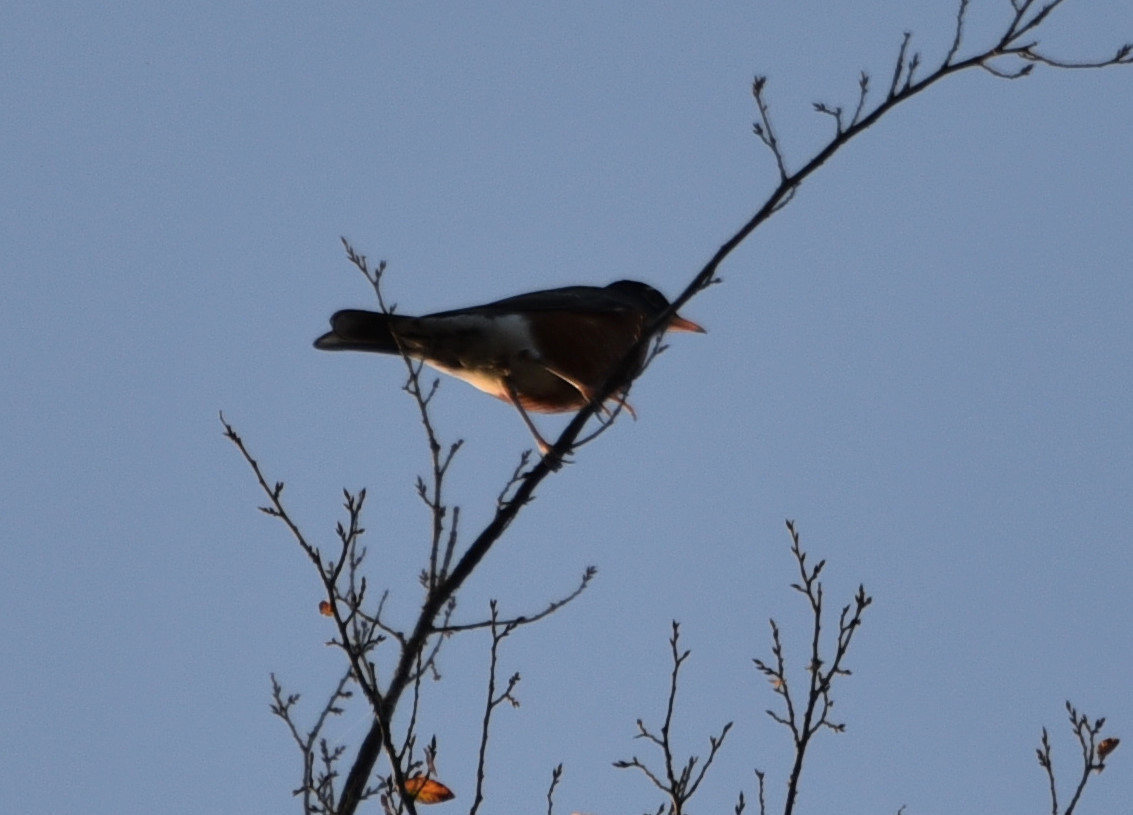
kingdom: Animalia
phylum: Chordata
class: Aves
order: Passeriformes
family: Turdidae
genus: Turdus
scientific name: Turdus migratorius
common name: American robin
